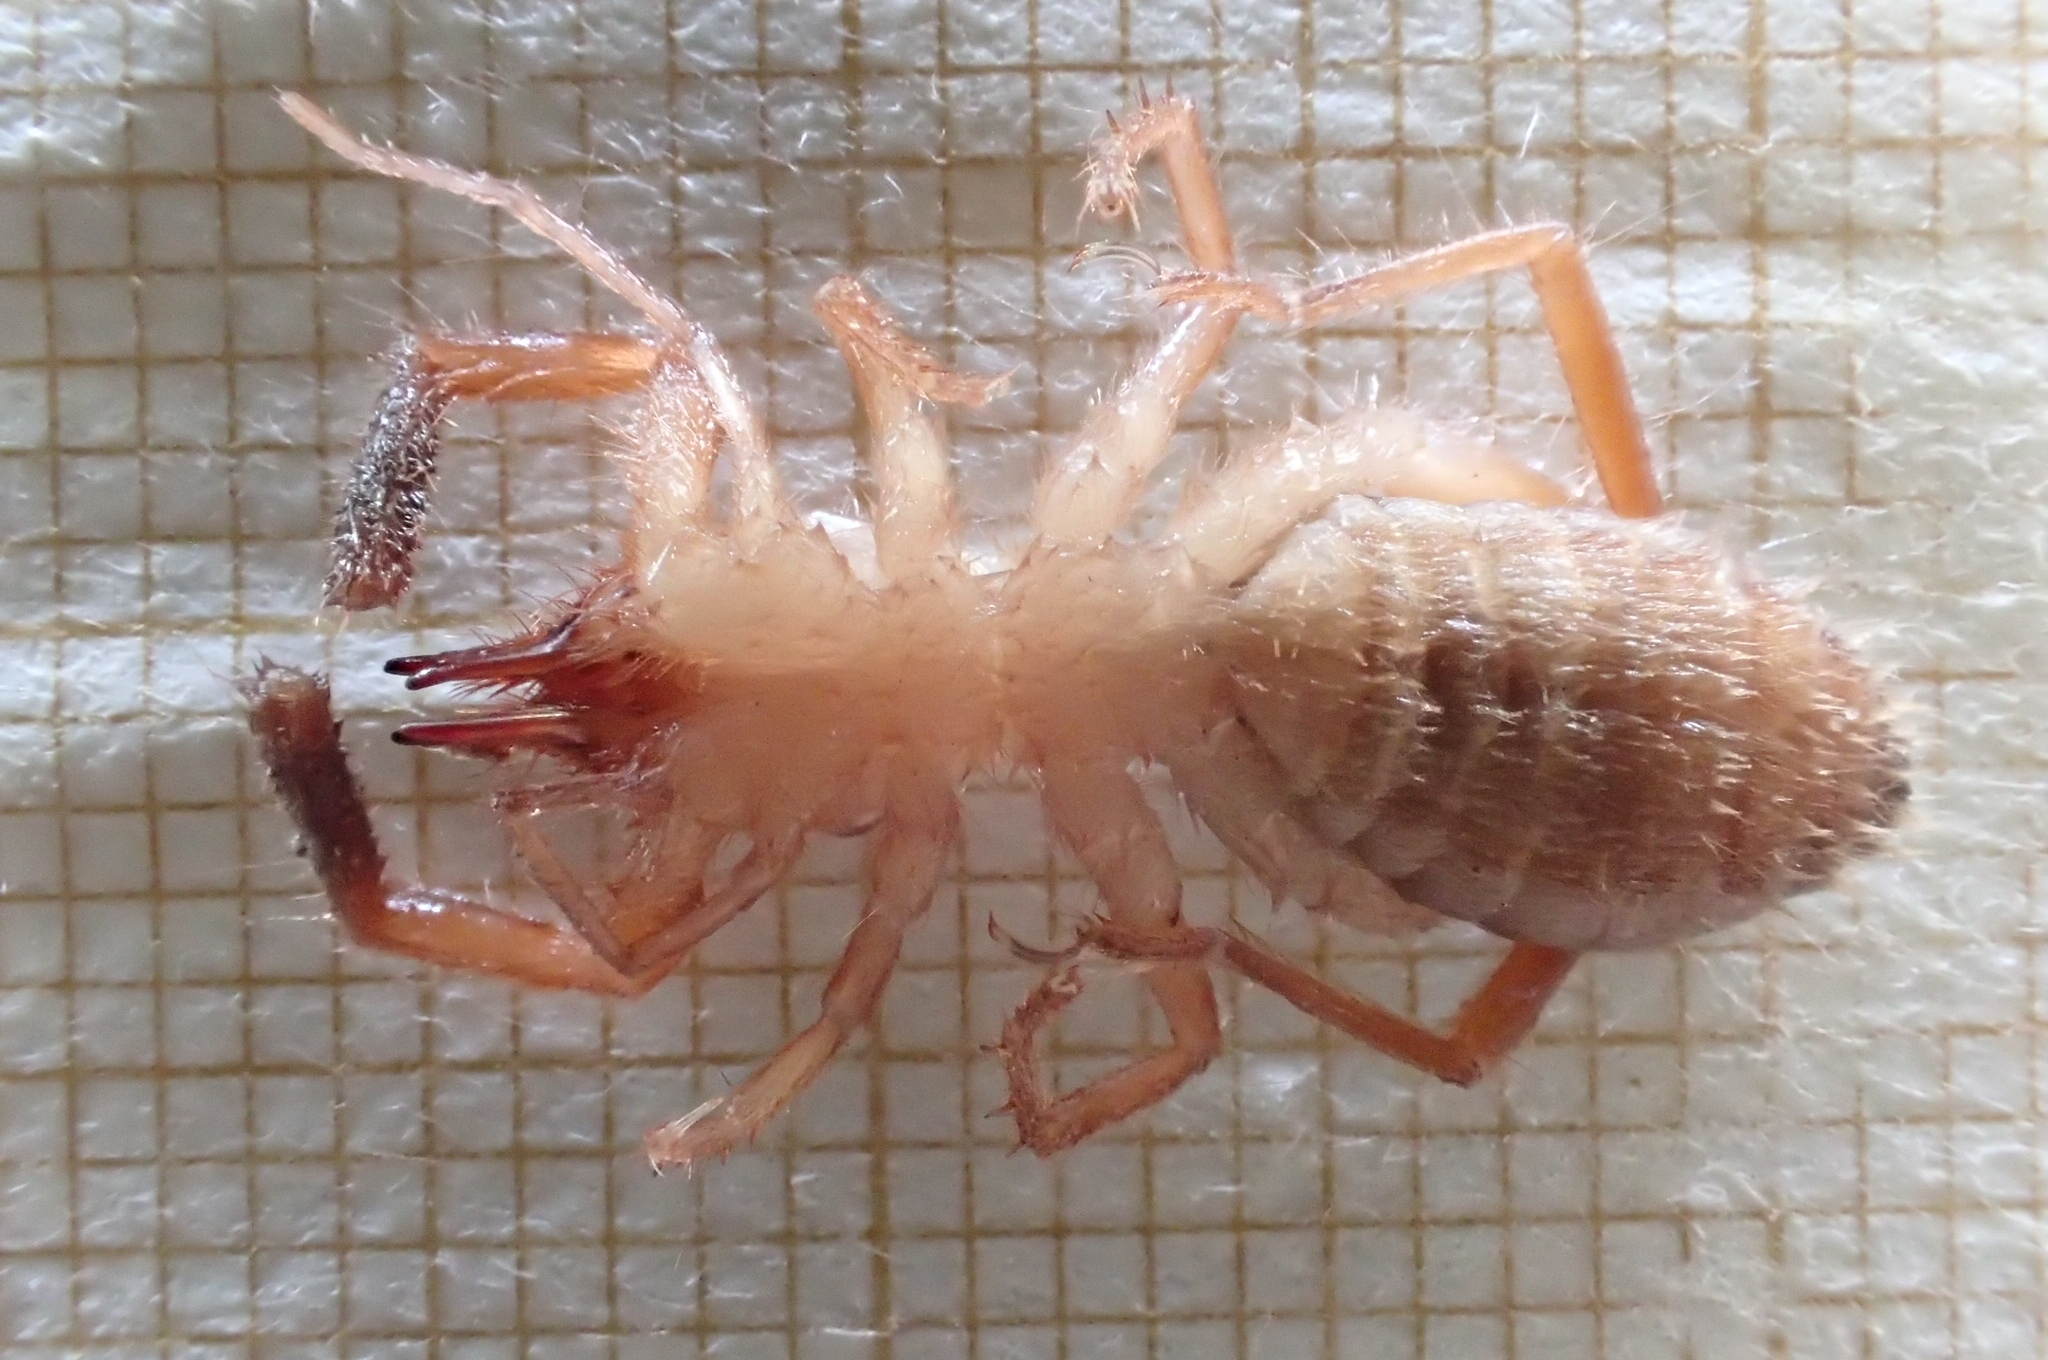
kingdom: Animalia
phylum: Arthropoda
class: Arachnida
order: Solifugae
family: Daesiidae
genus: Gluvia
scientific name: Gluvia dorsalis
